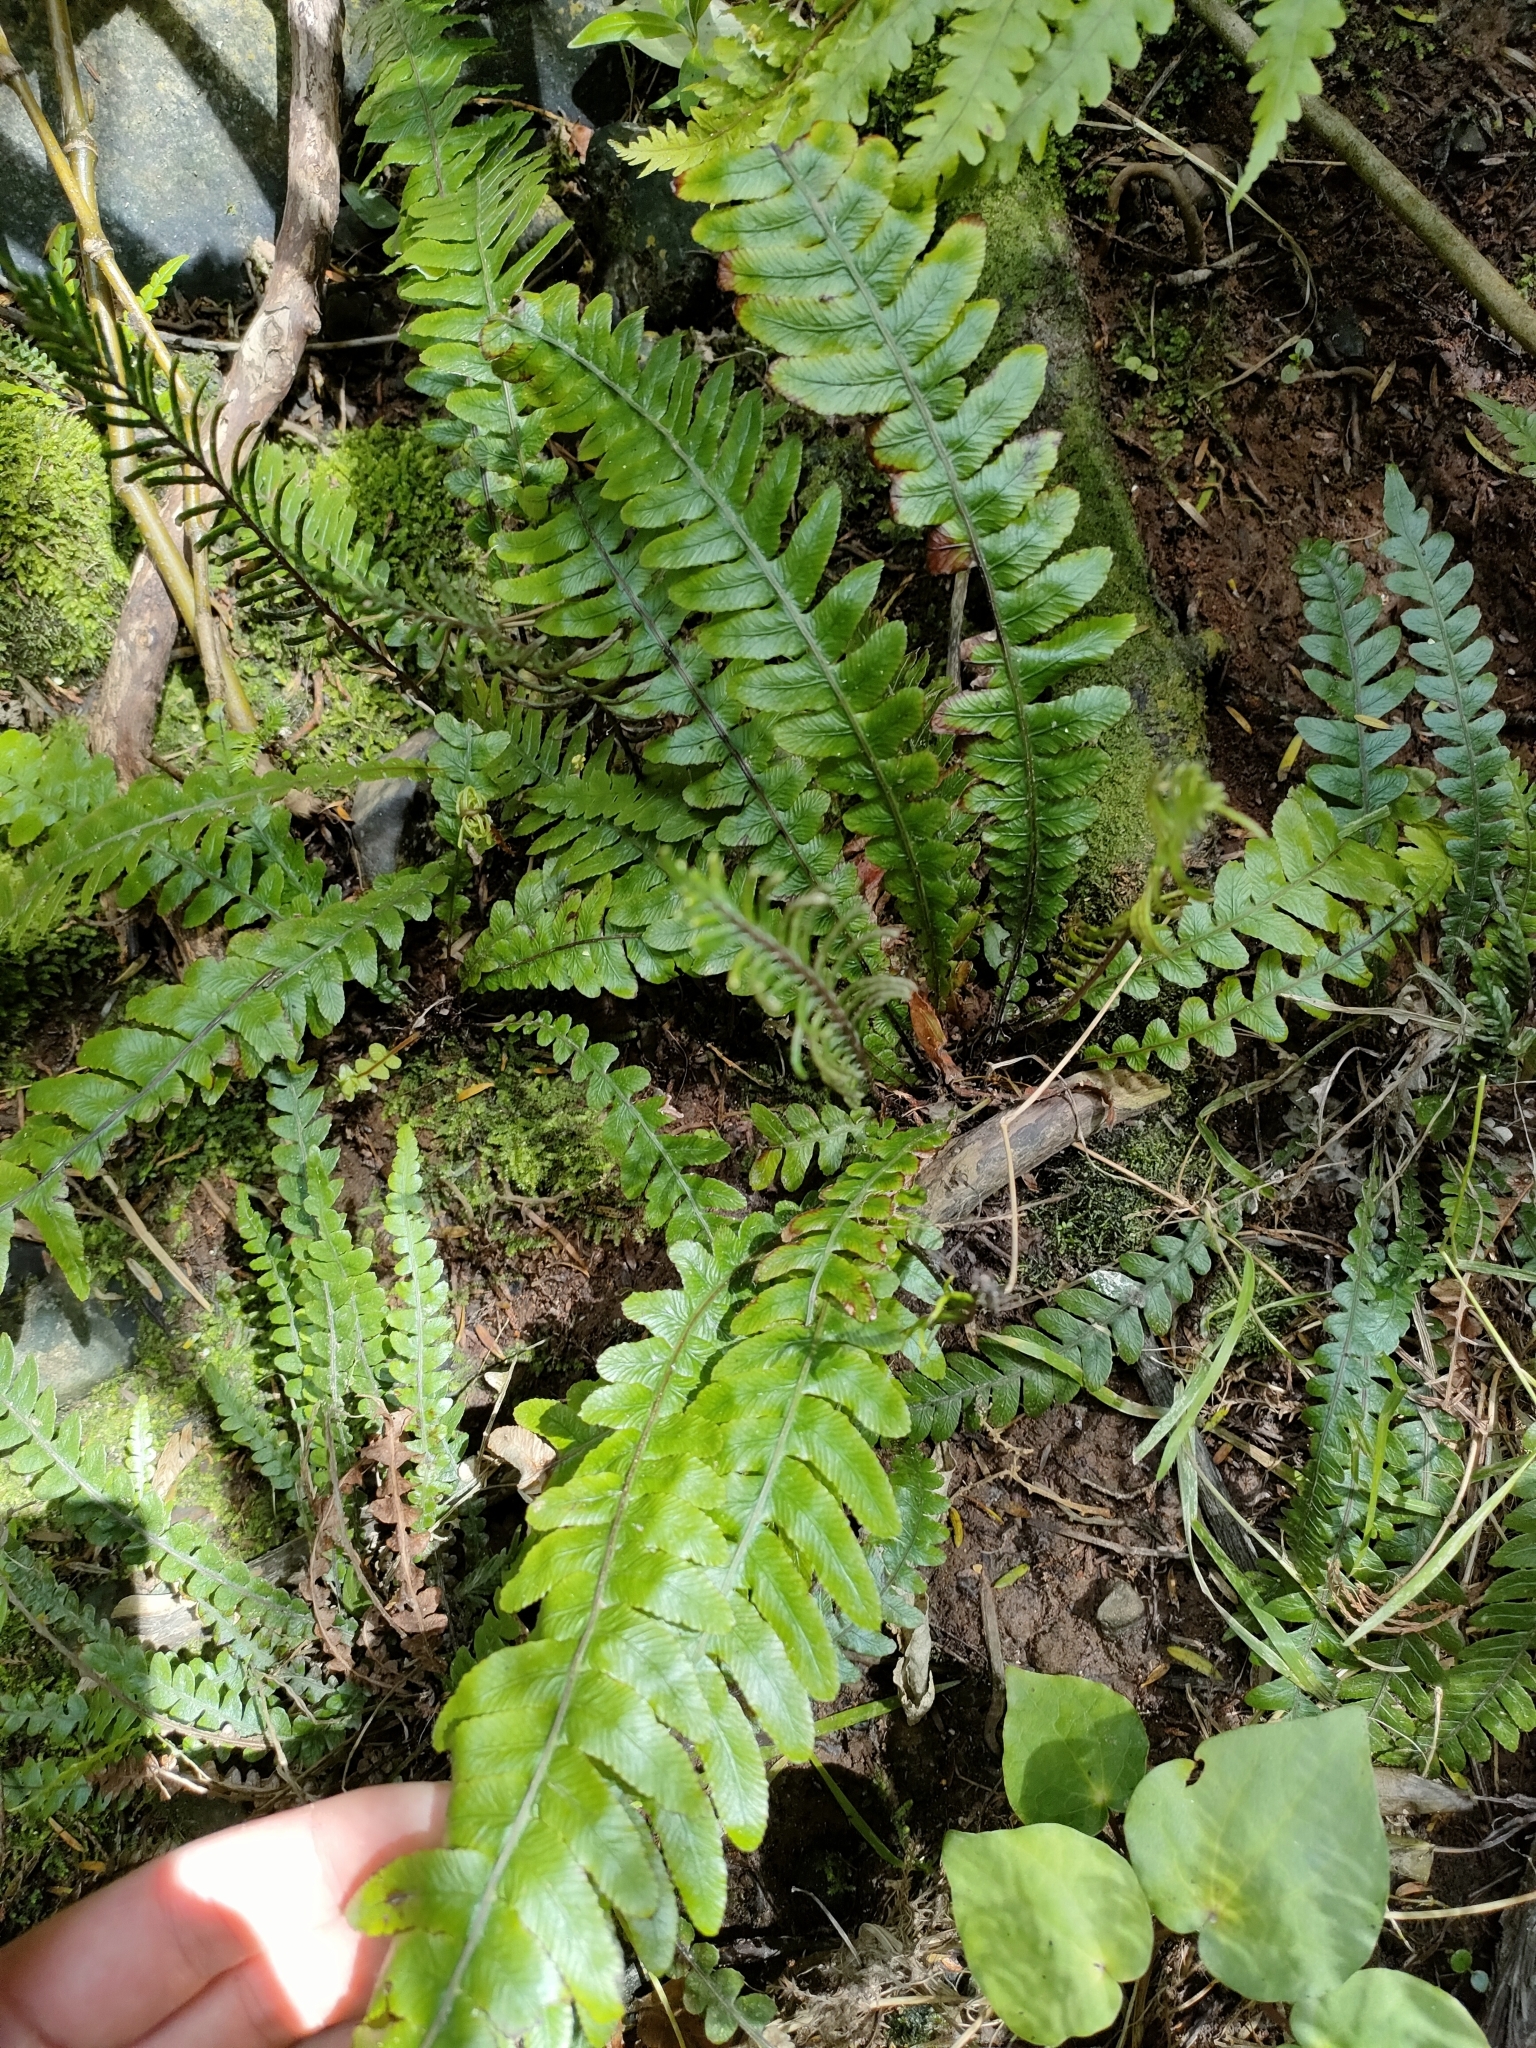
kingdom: Plantae
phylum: Tracheophyta
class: Polypodiopsida
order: Polypodiales
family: Blechnaceae
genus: Austroblechnum
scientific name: Austroblechnum lanceolatum
